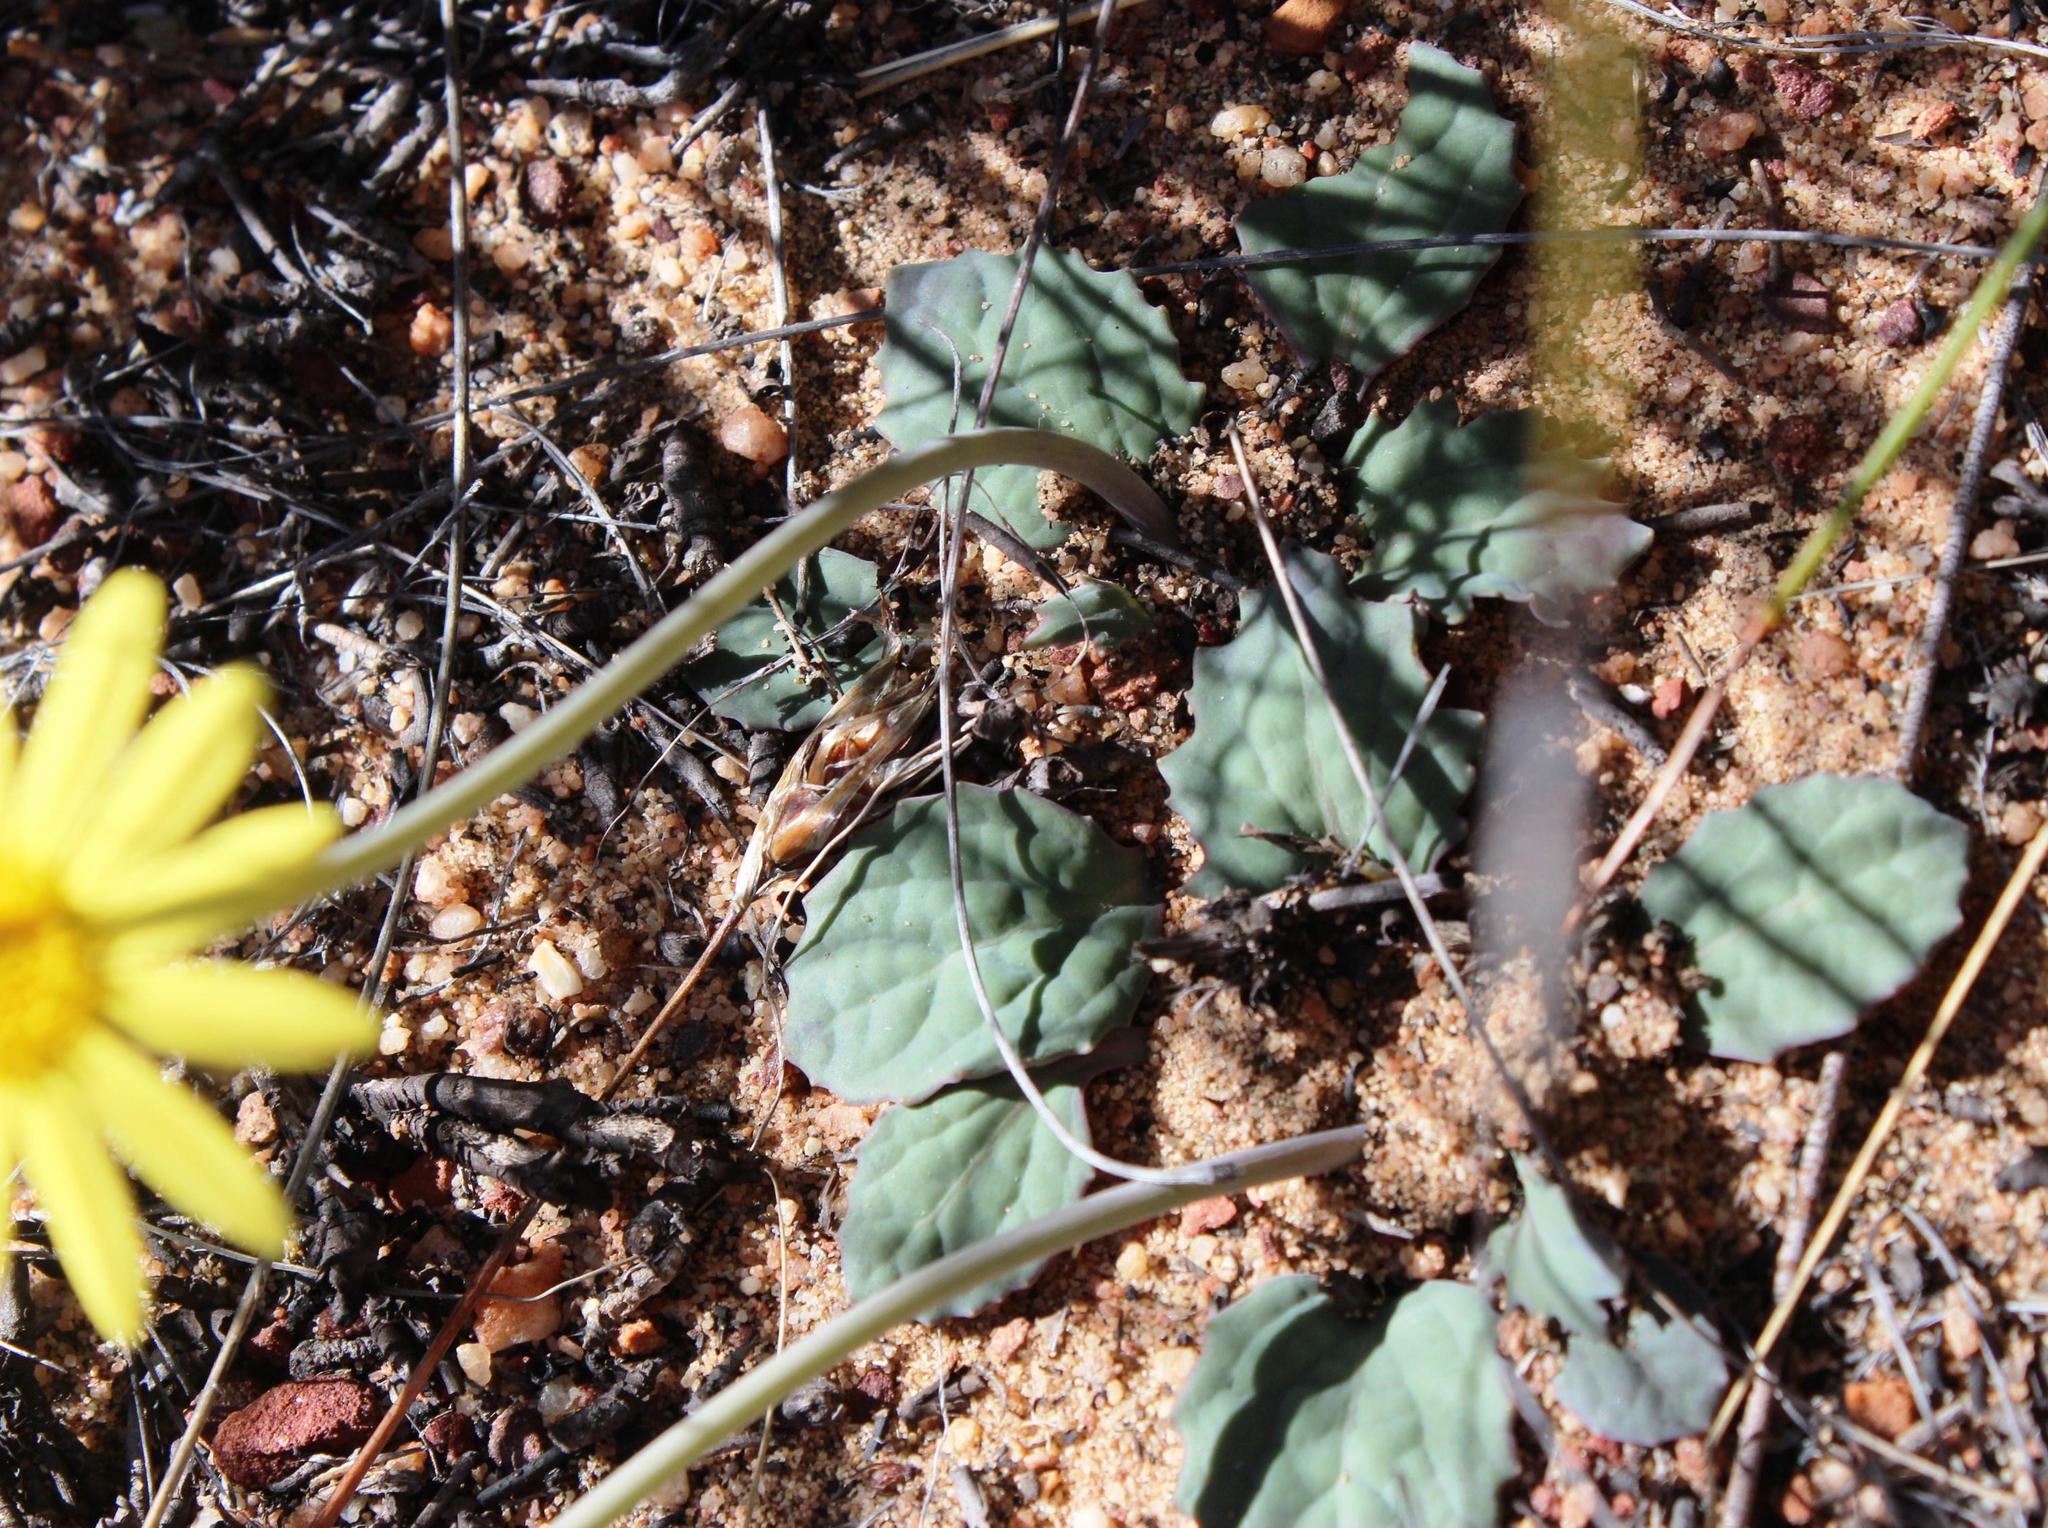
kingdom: Plantae
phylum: Tracheophyta
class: Magnoliopsida
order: Asterales
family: Asteraceae
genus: Othonna
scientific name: Othonna oleracea
